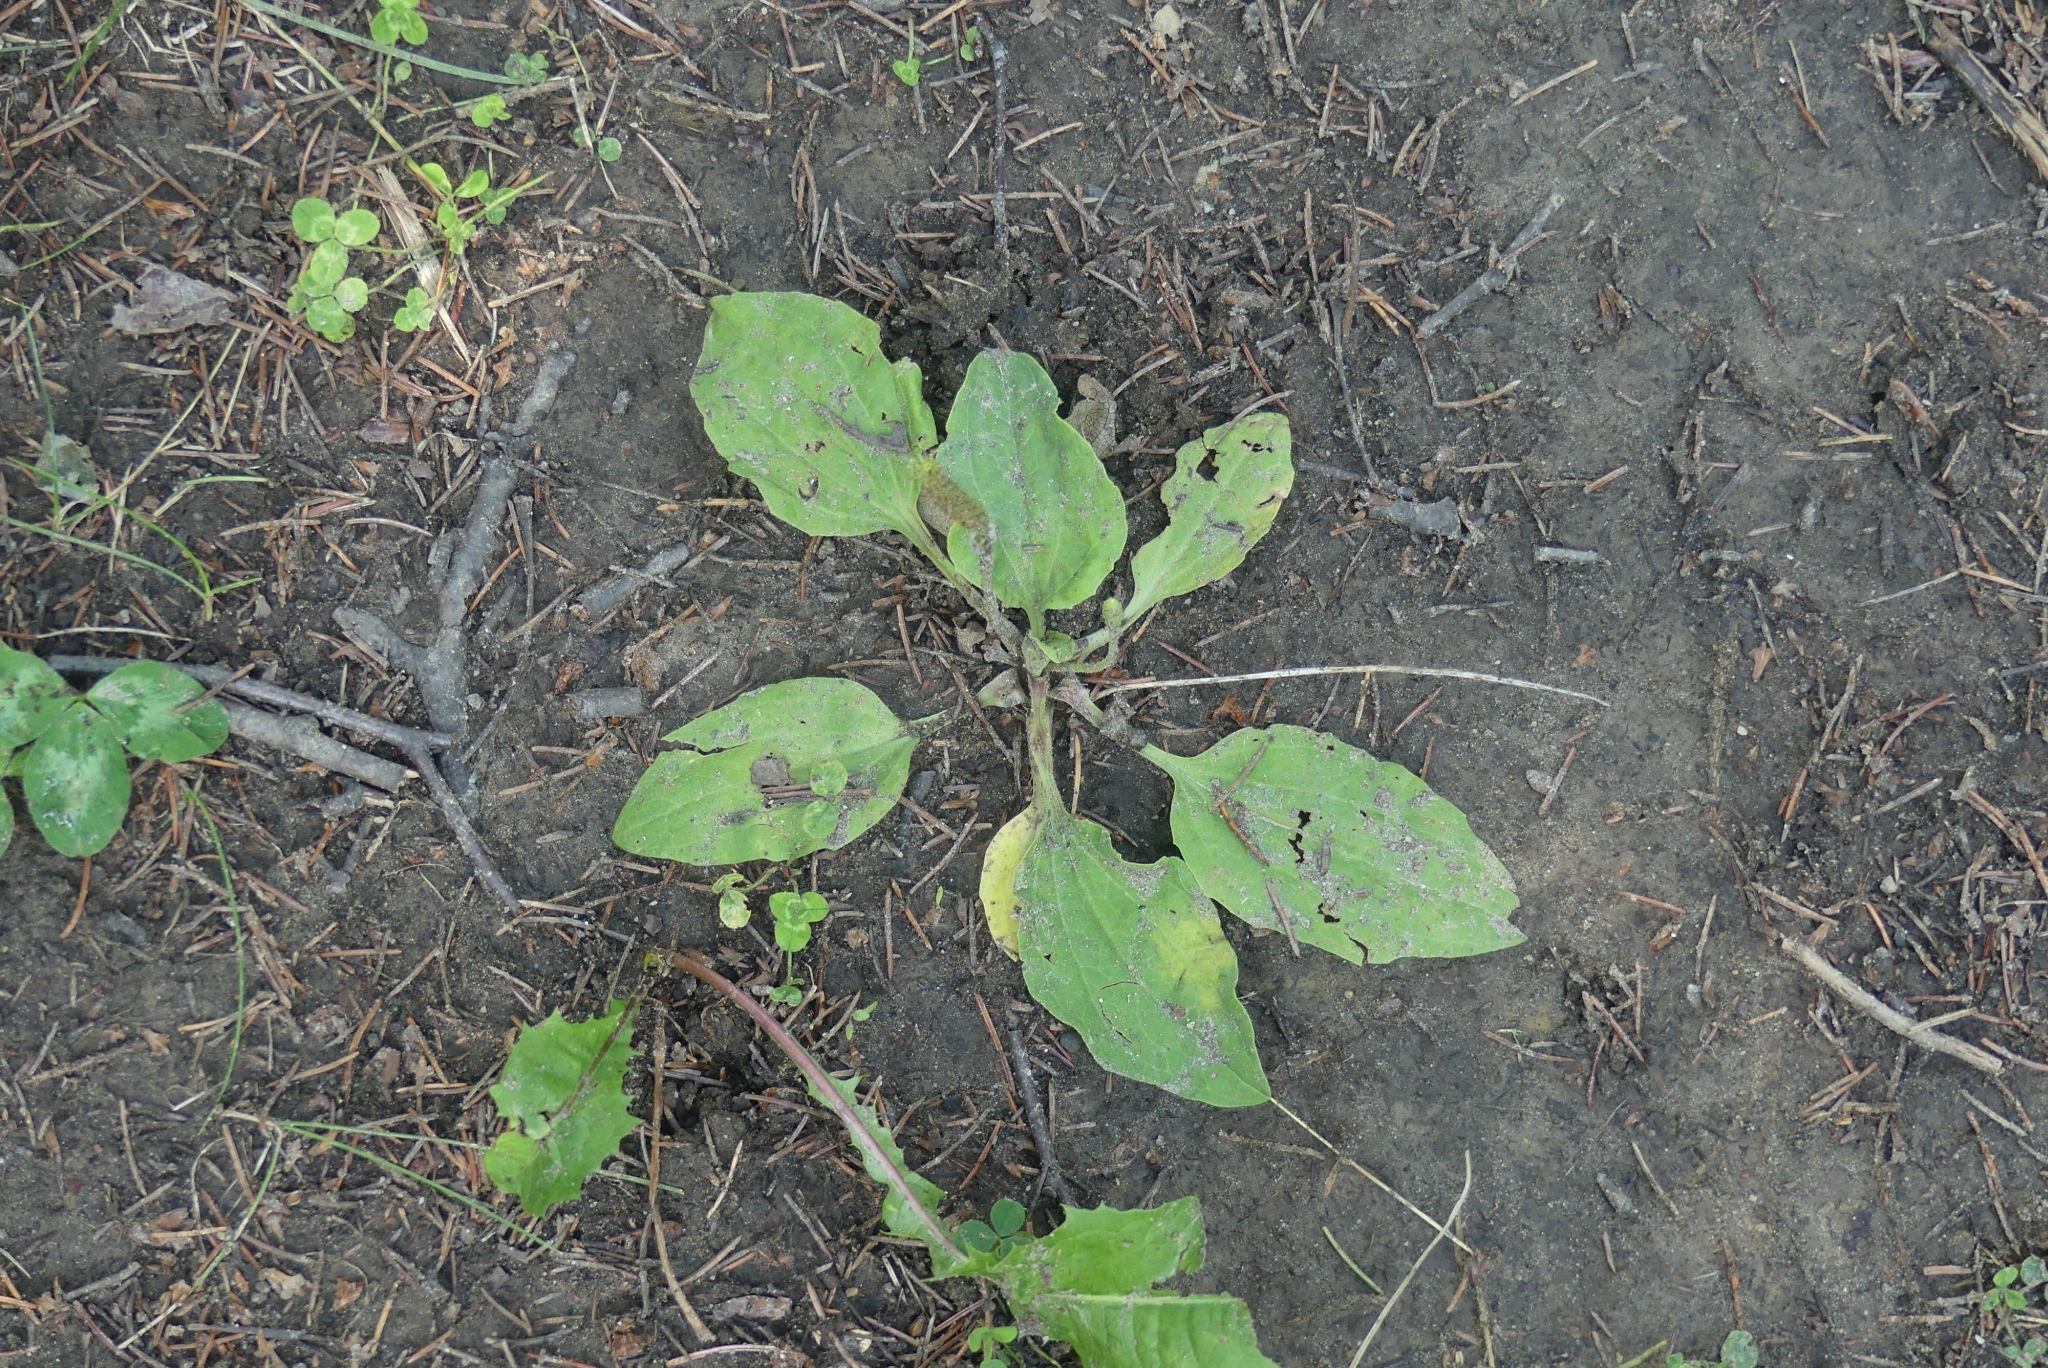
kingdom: Plantae
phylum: Tracheophyta
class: Magnoliopsida
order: Lamiales
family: Plantaginaceae
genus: Plantago
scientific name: Plantago major
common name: Common plantain
